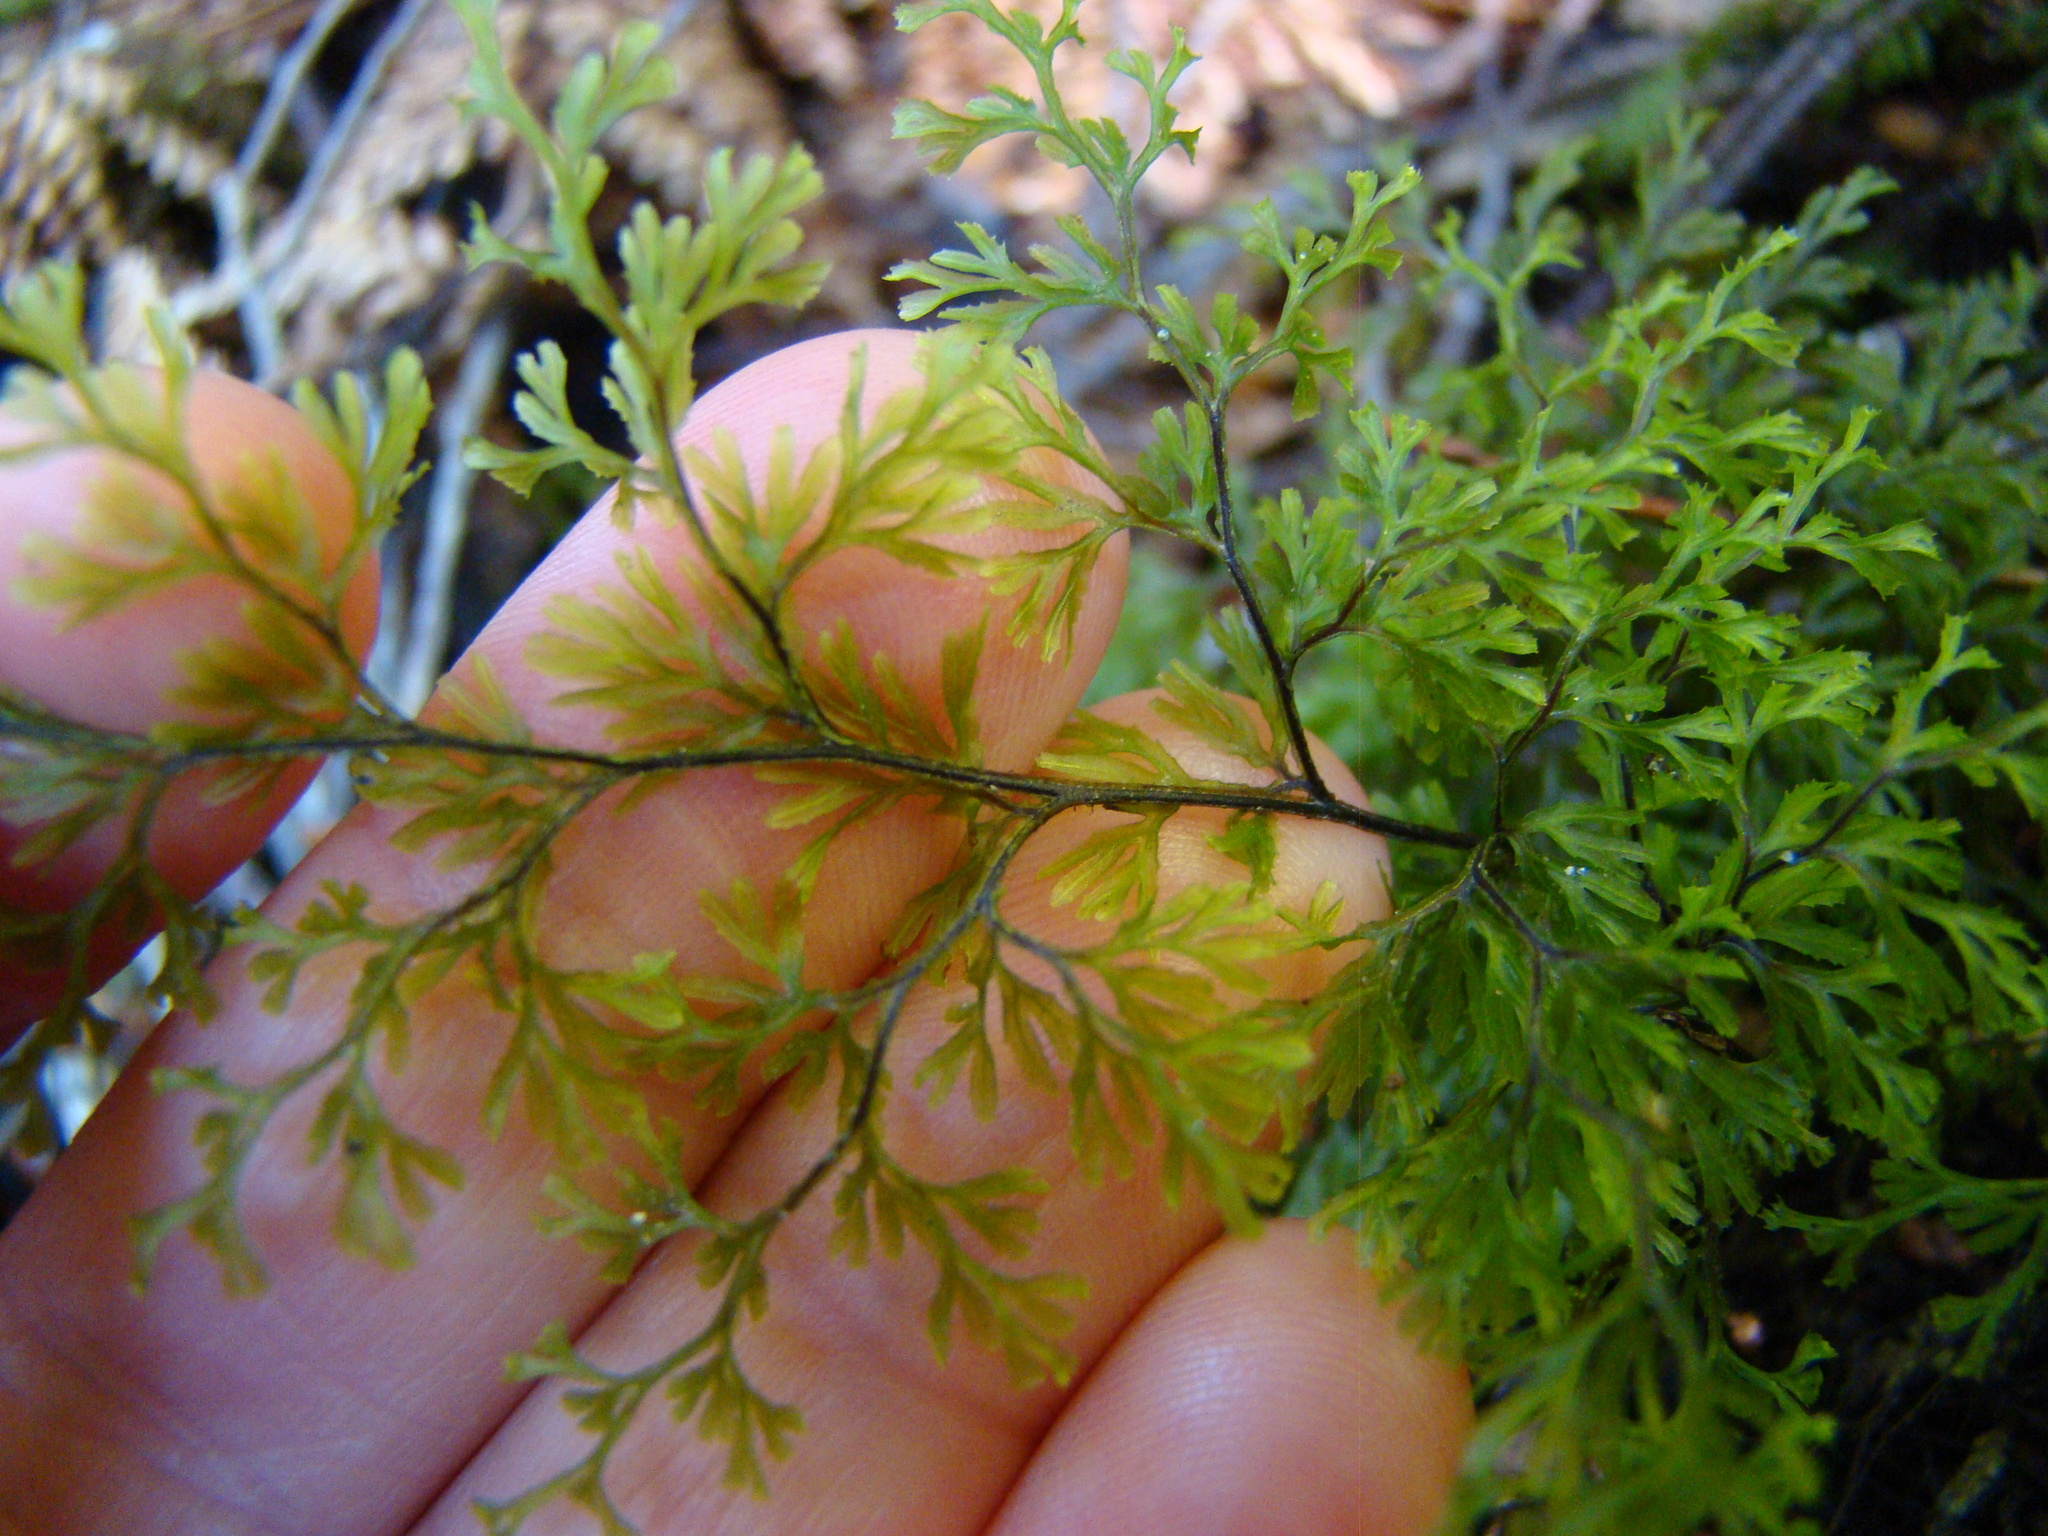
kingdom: Plantae
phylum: Tracheophyta
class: Polypodiopsida
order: Hymenophyllales
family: Hymenophyllaceae
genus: Hymenophyllum
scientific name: Hymenophyllum multifidum
